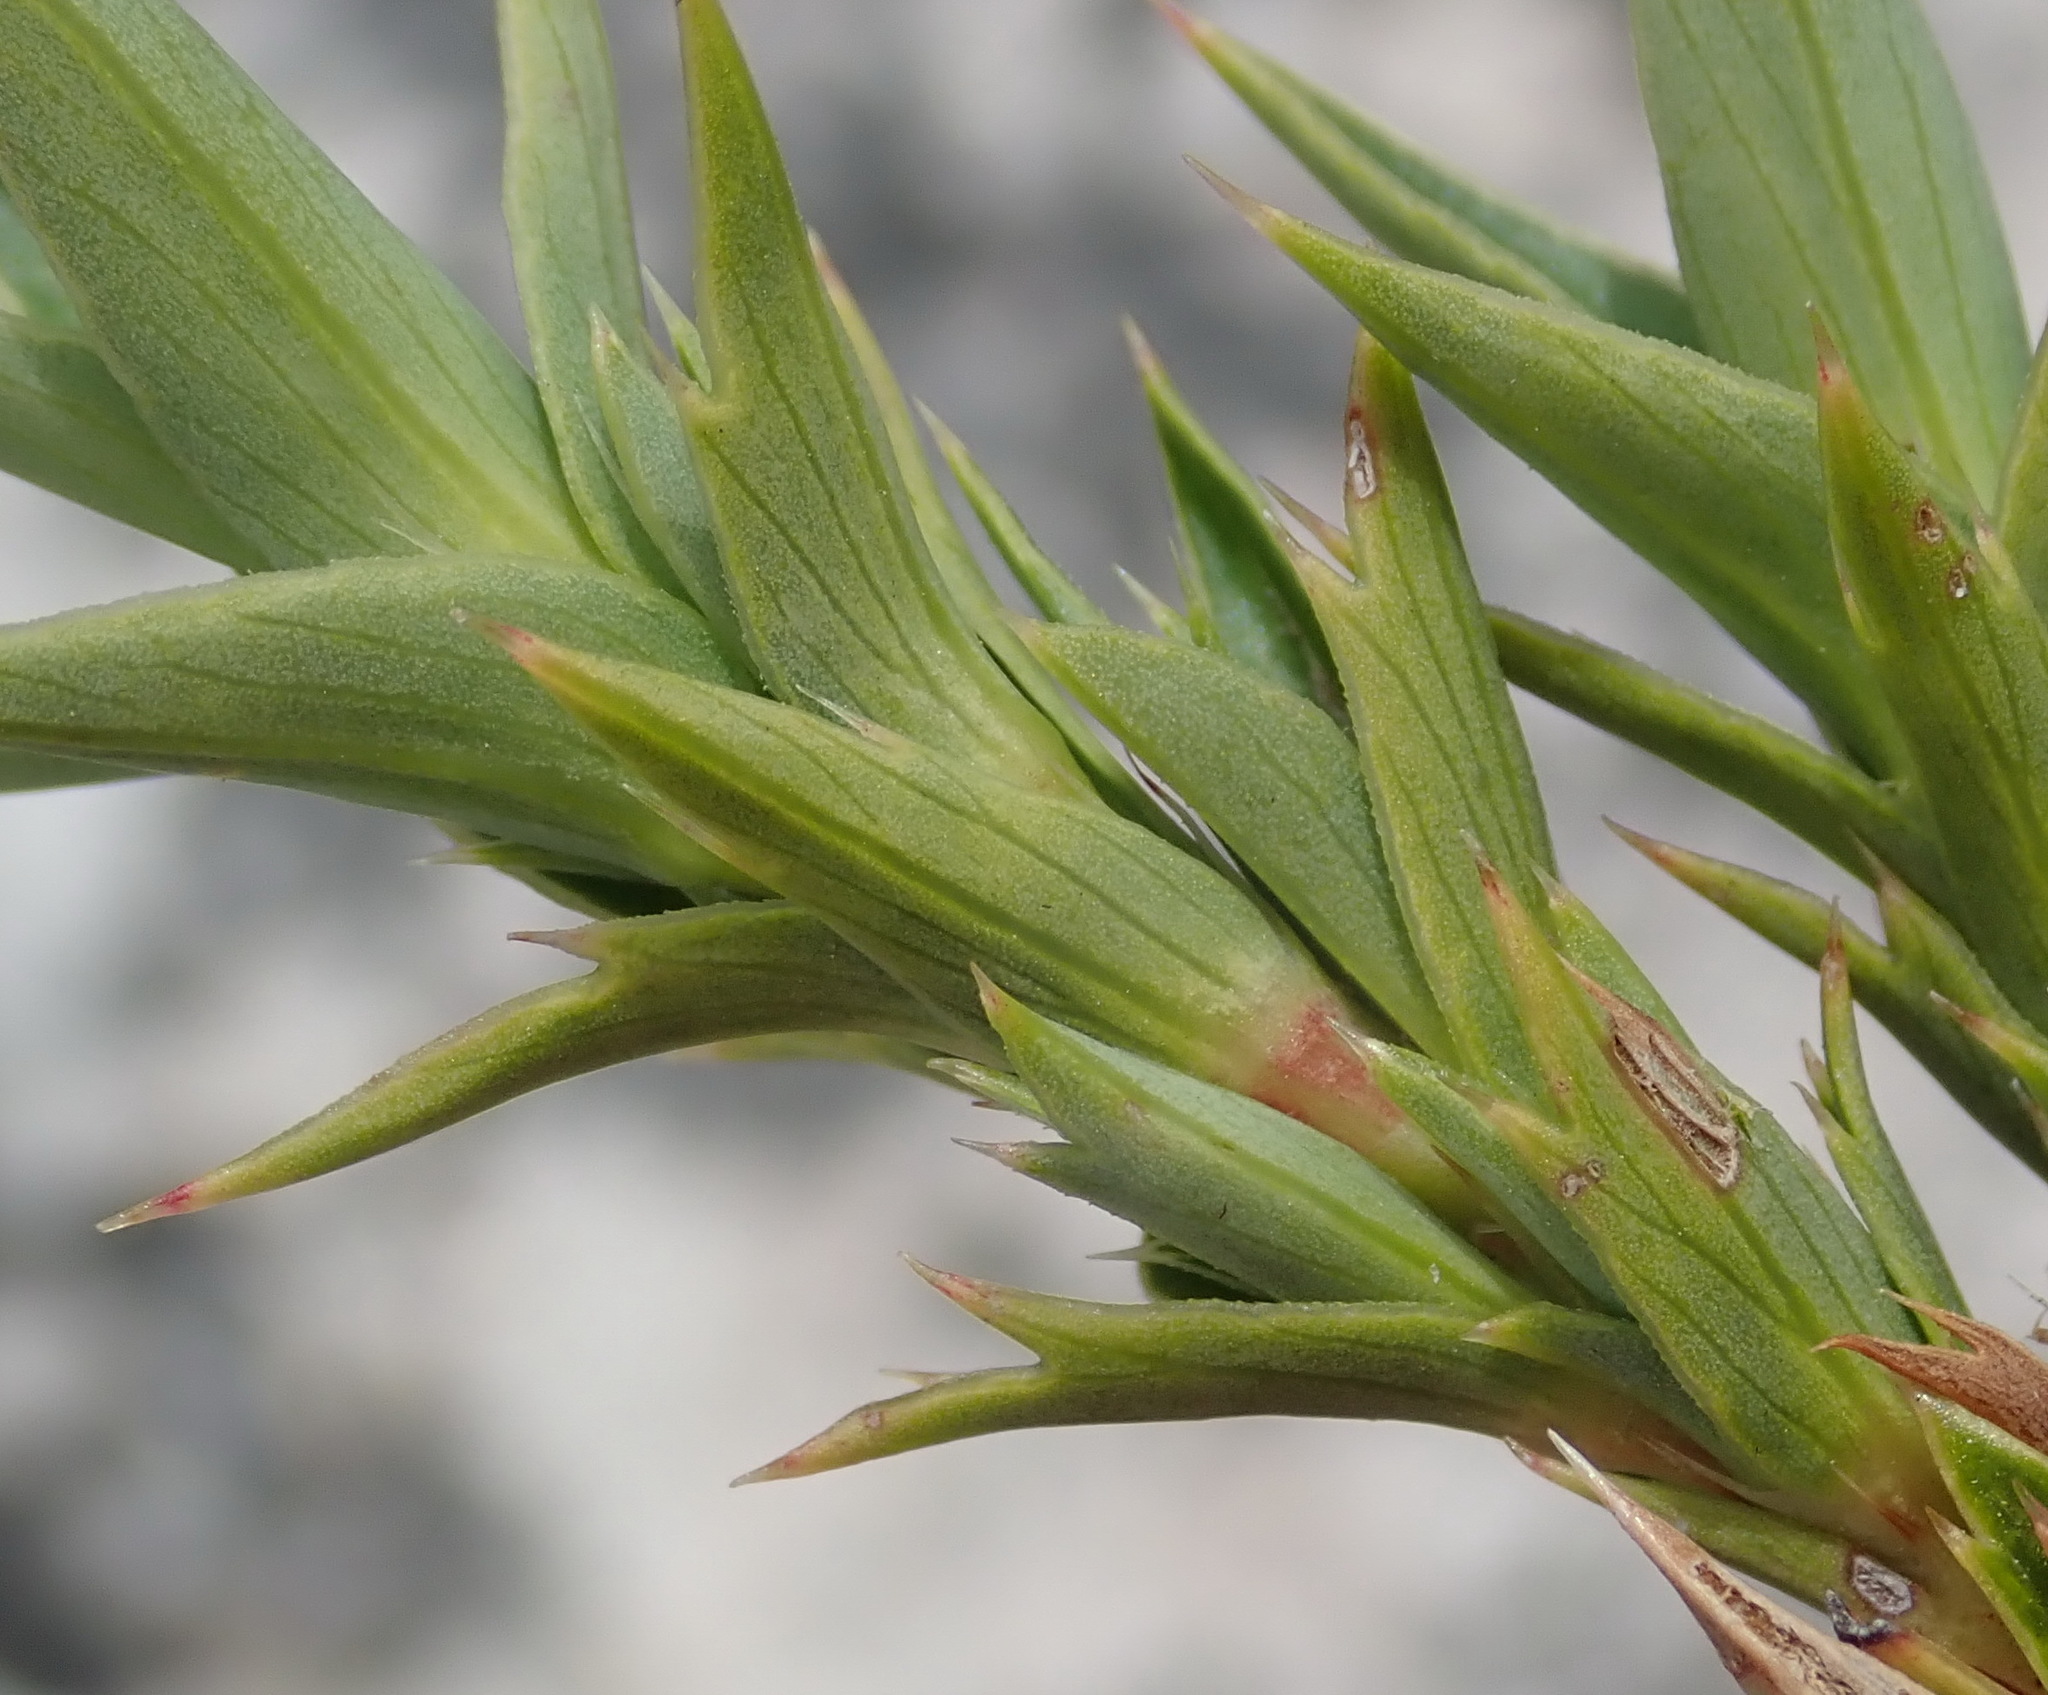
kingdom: Plantae
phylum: Tracheophyta
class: Magnoliopsida
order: Rosales
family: Rosaceae
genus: Cliffortia
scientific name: Cliffortia ilicifolia
